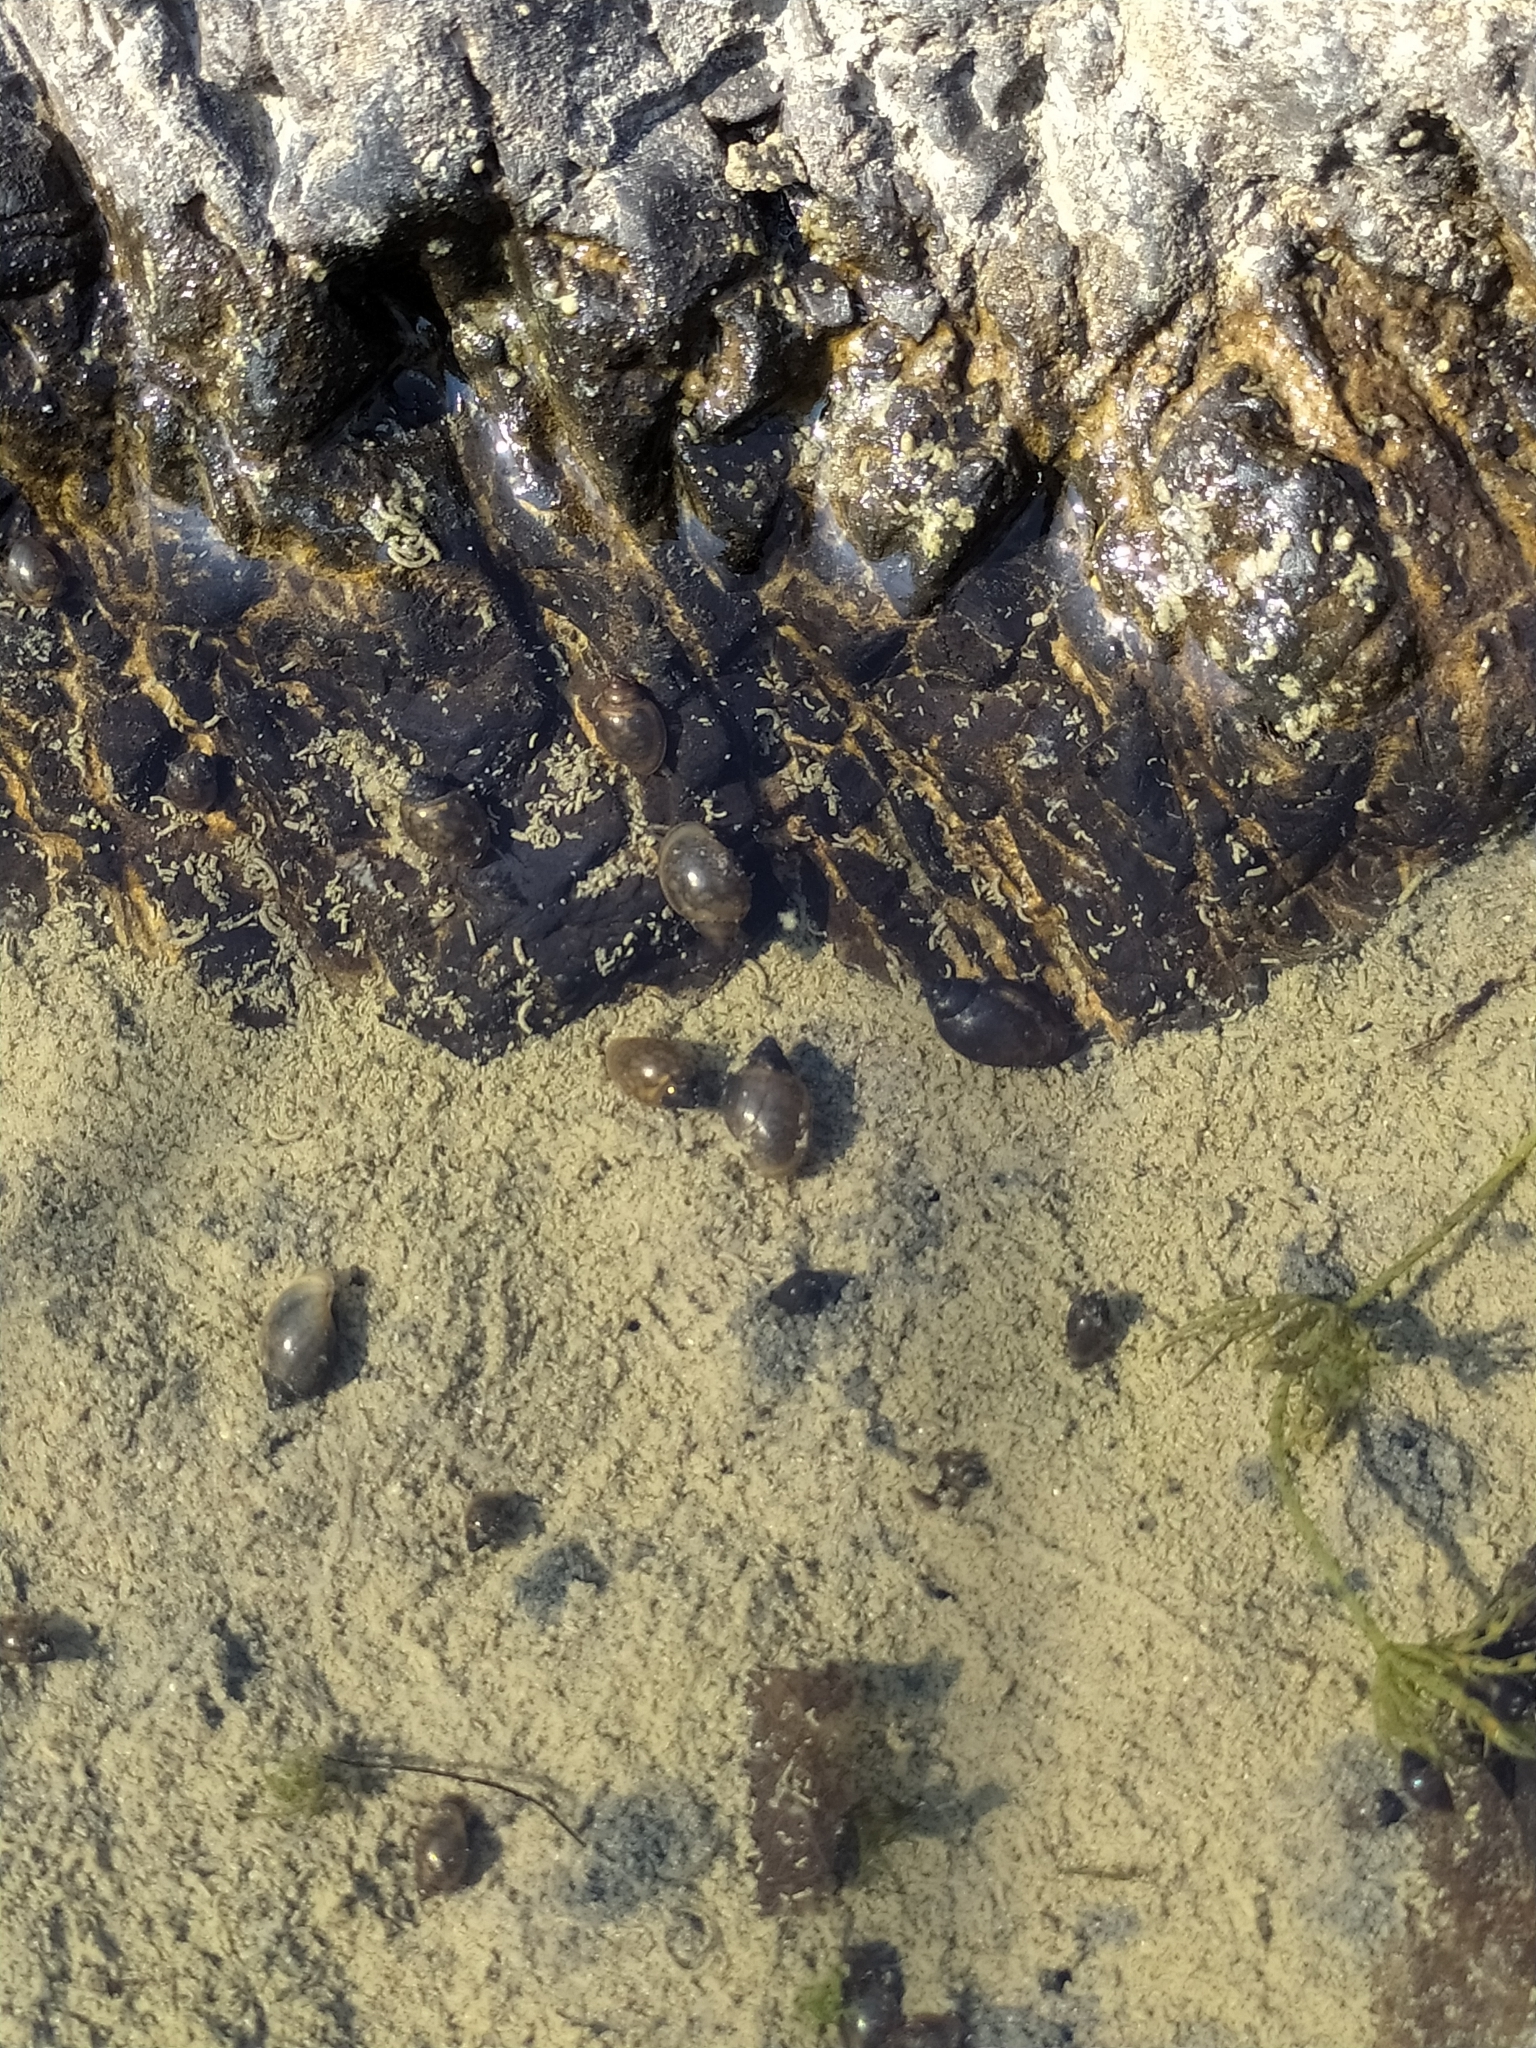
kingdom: Animalia
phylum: Mollusca
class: Gastropoda
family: Physidae
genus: Physella
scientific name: Physella acuta
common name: European physa
